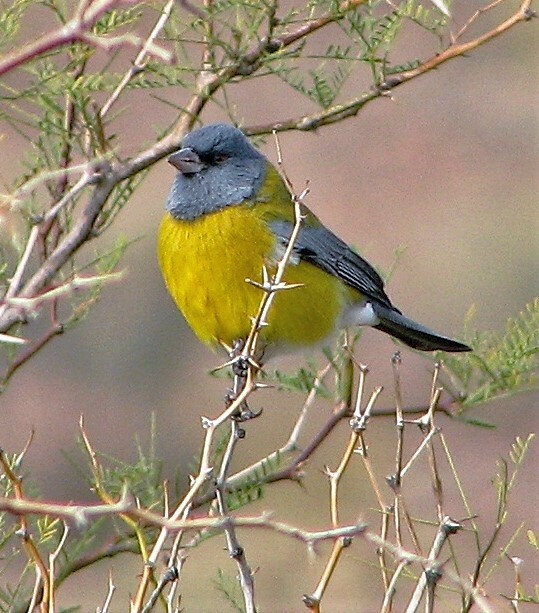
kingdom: Animalia
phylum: Chordata
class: Aves
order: Passeriformes
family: Thraupidae
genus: Phrygilus
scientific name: Phrygilus gayi
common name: Grey-hooded sierra finch
